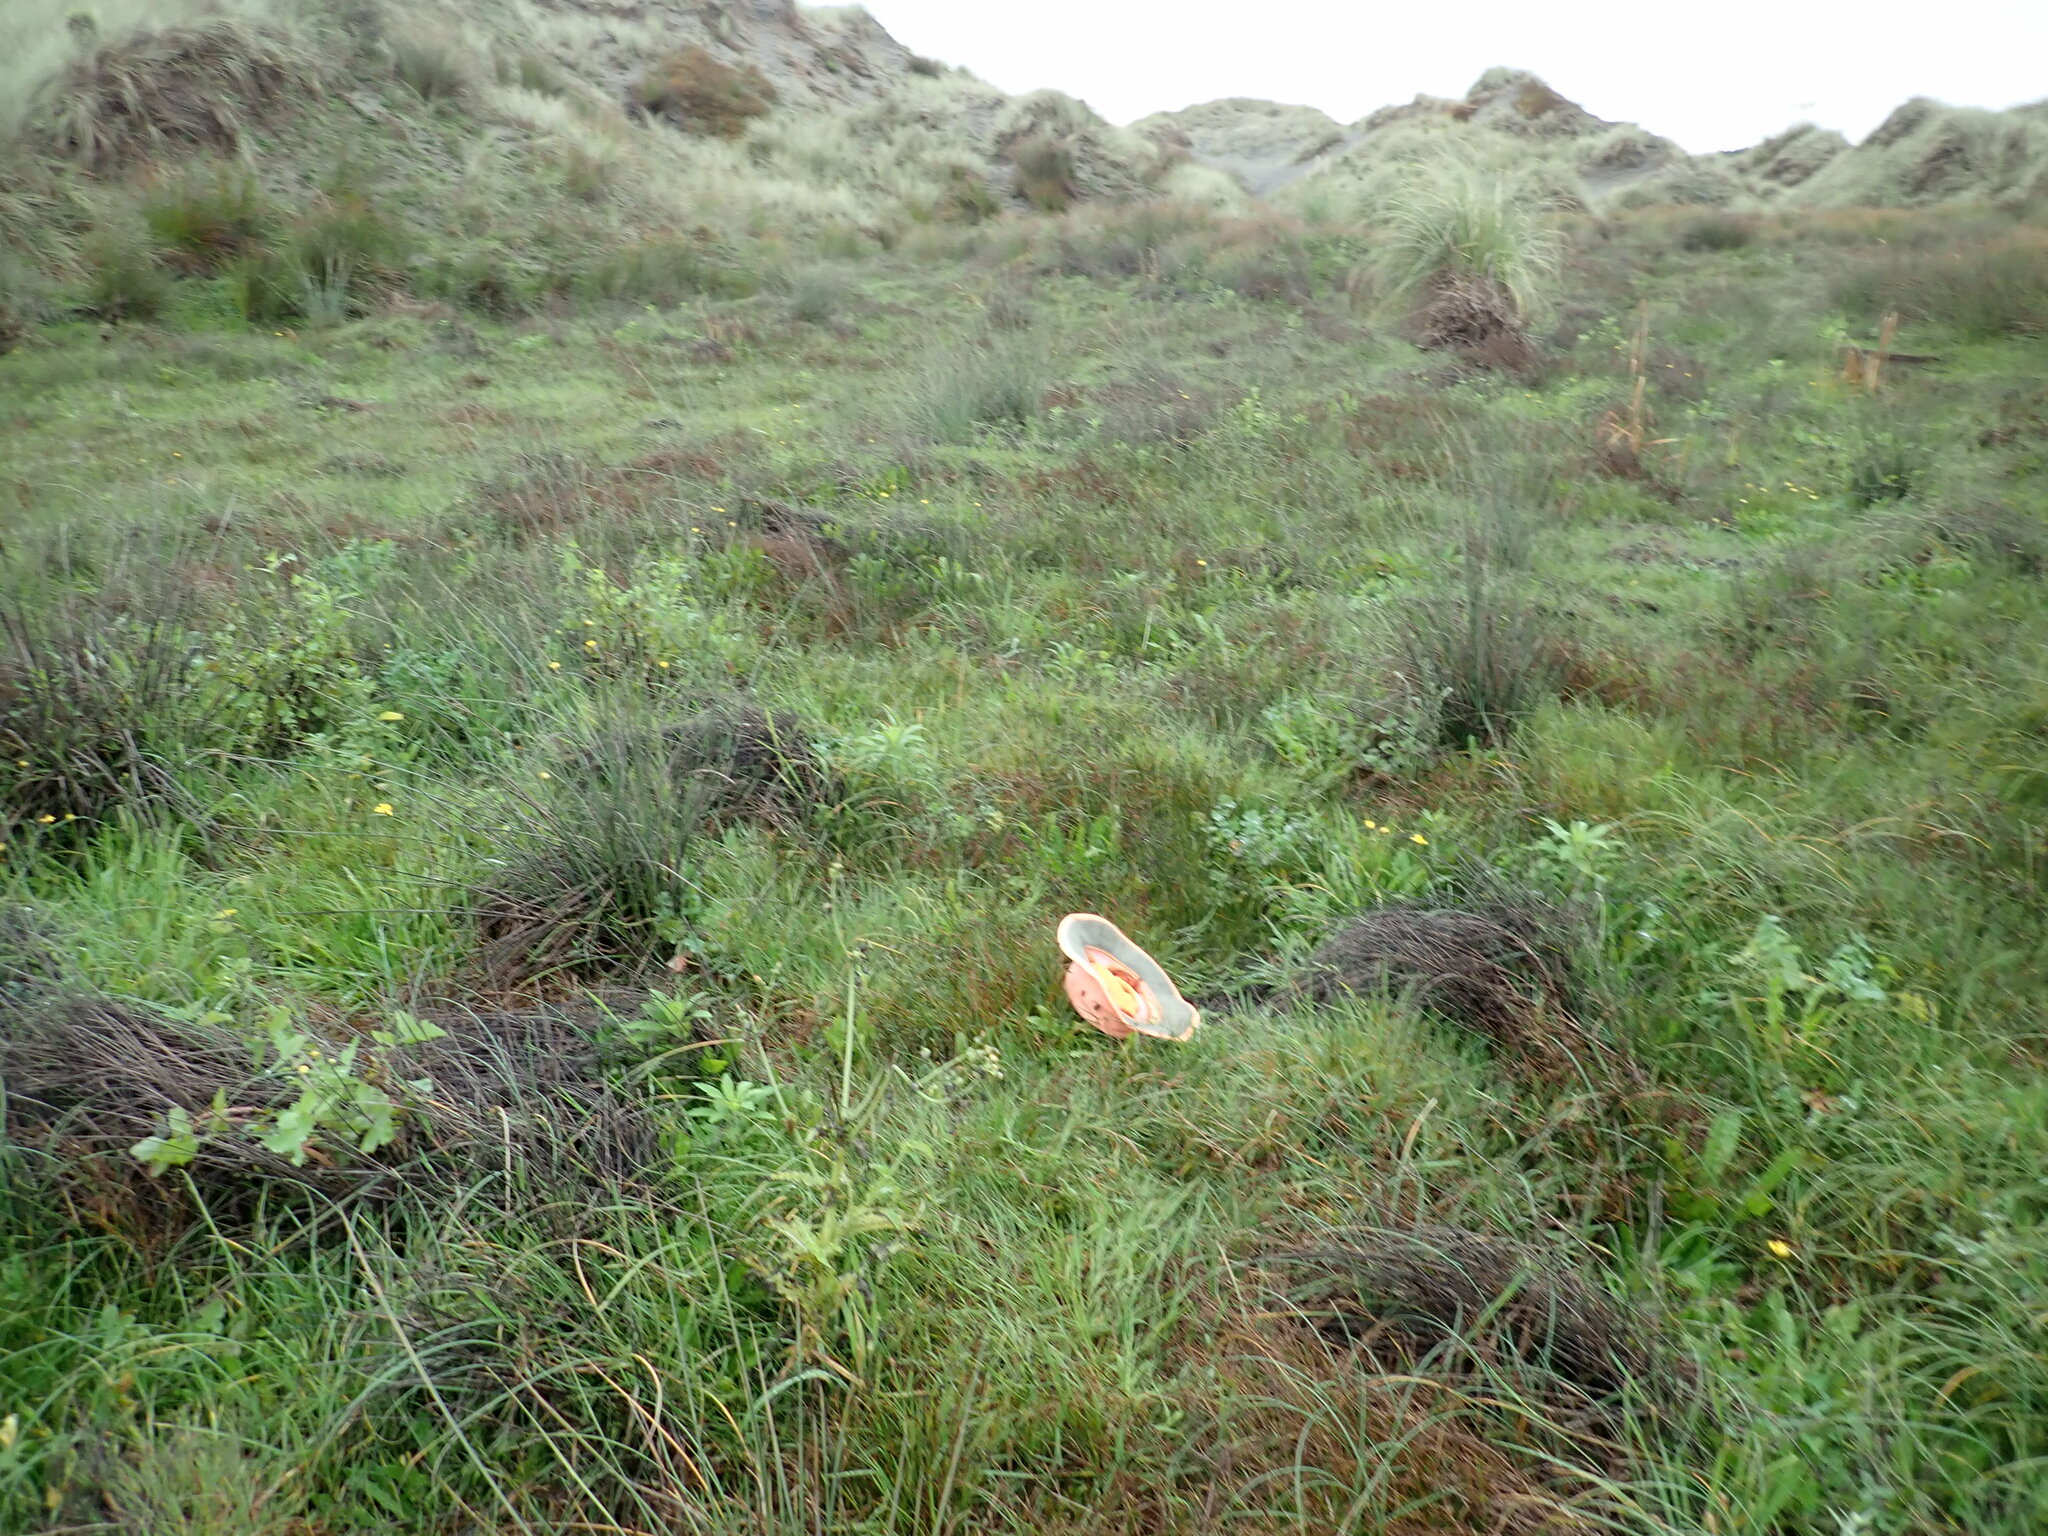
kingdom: Plantae
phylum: Tracheophyta
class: Liliopsida
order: Poales
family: Juncaceae
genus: Juncus
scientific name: Juncus articulatus
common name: Jointed rush
